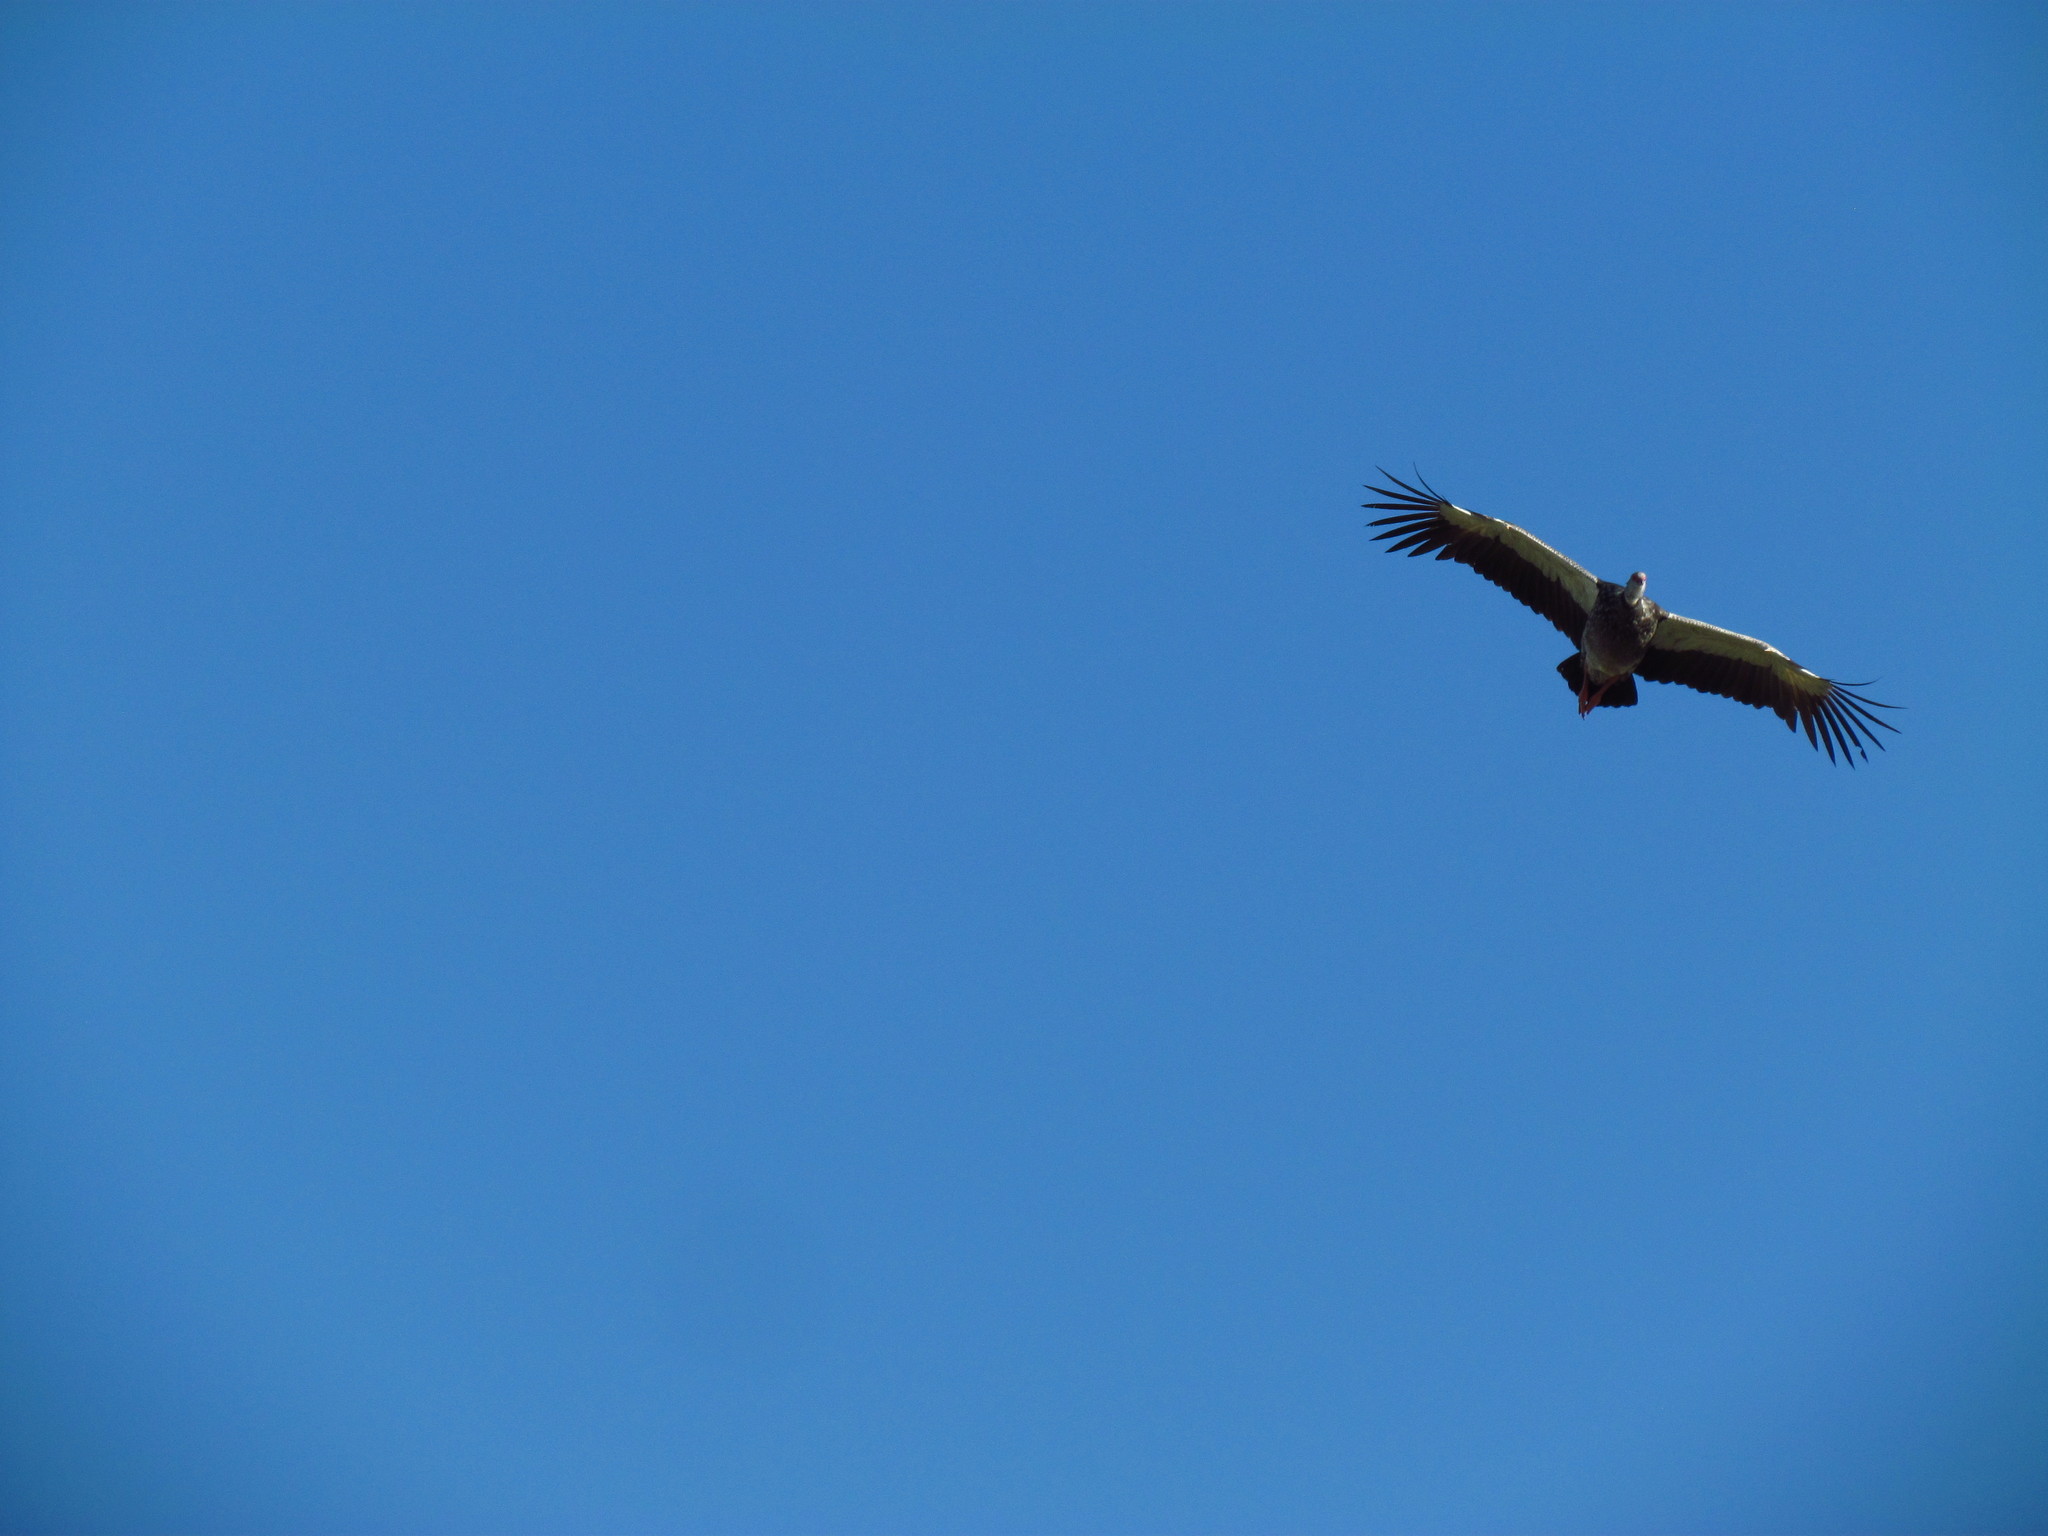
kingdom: Animalia
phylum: Chordata
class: Aves
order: Anseriformes
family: Anhimidae
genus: Chauna
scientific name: Chauna torquata
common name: Southern screamer
